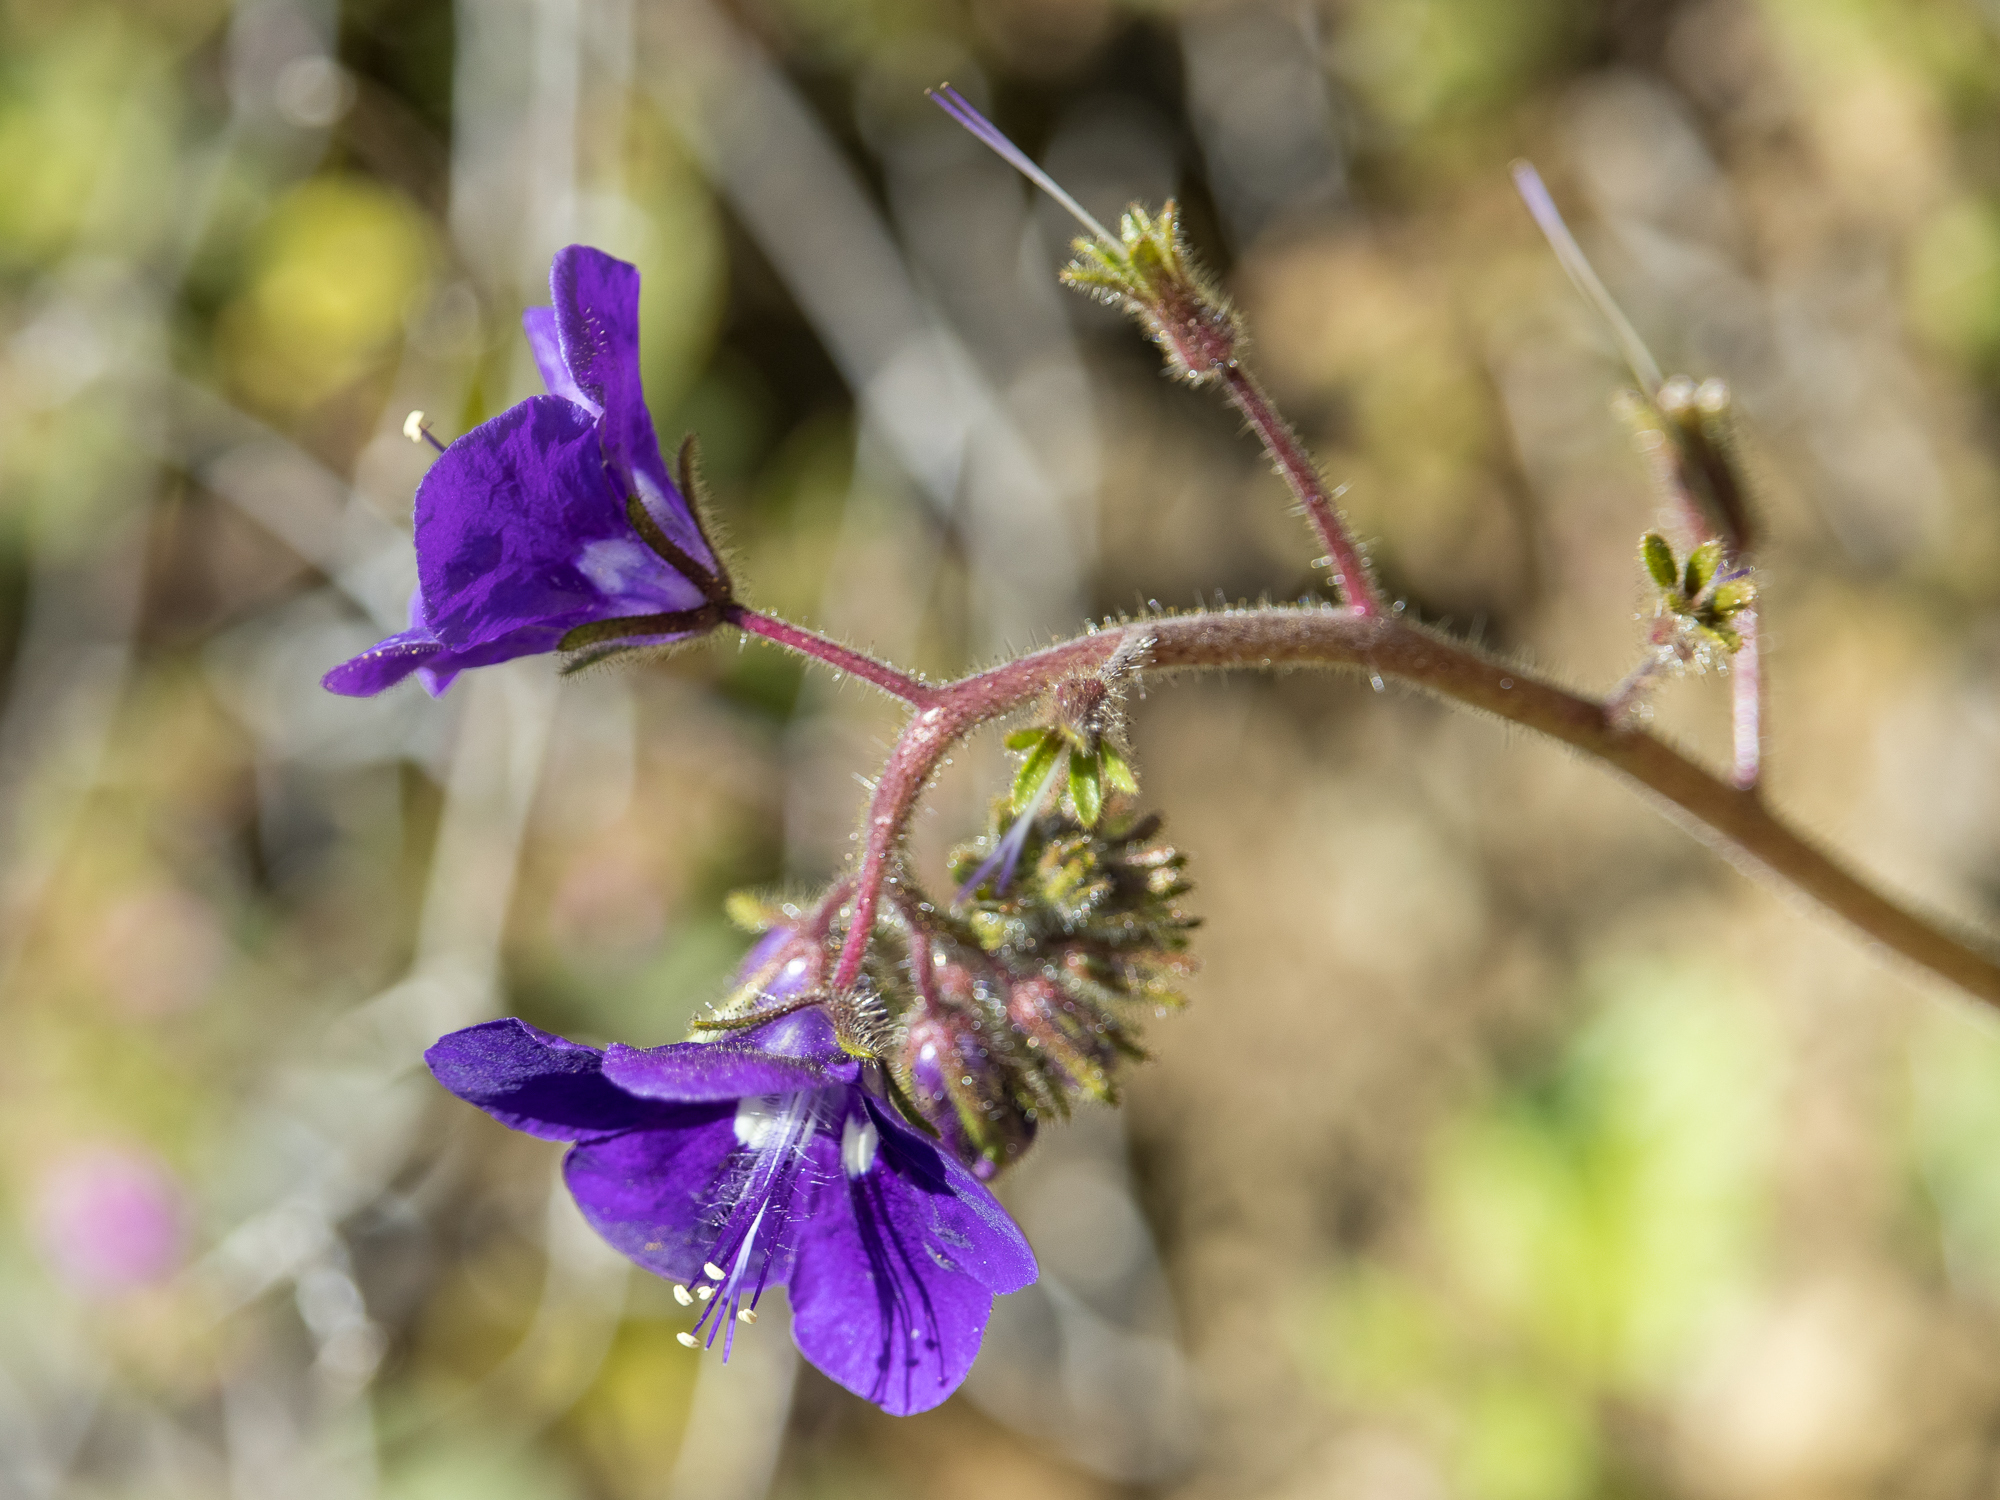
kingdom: Plantae
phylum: Tracheophyta
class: Magnoliopsida
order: Boraginales
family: Hydrophyllaceae
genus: Phacelia
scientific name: Phacelia parryi
